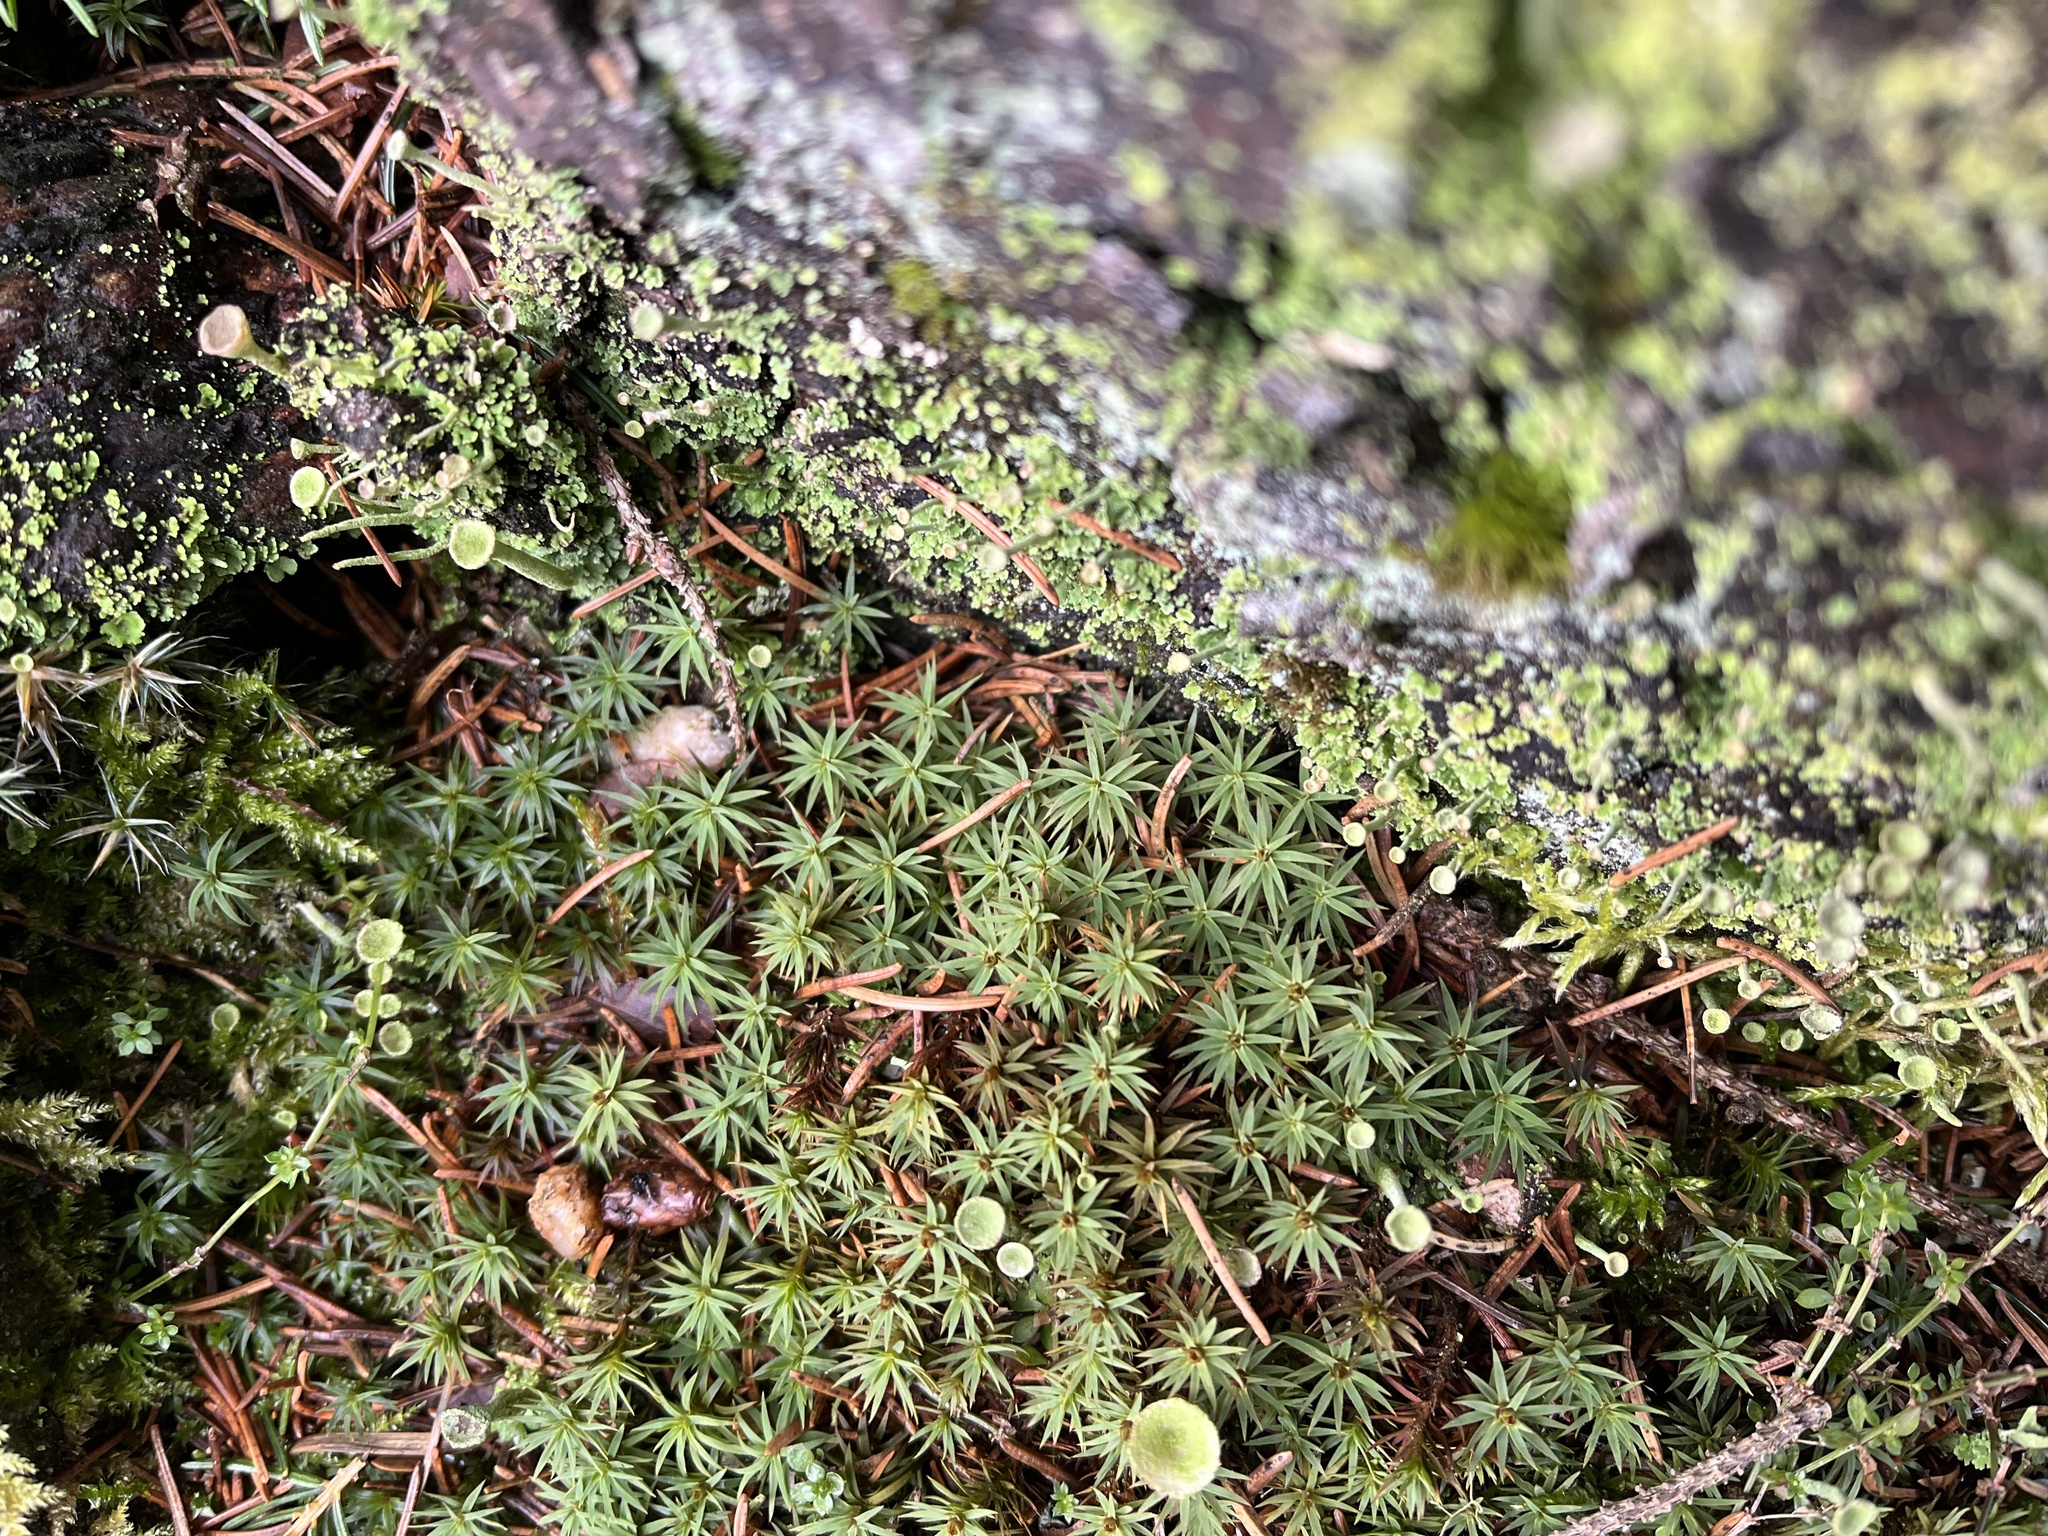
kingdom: Plantae
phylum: Bryophyta
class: Polytrichopsida
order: Polytrichales
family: Polytrichaceae
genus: Pogonatum
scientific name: Pogonatum urnigerum
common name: Urn hair moss
